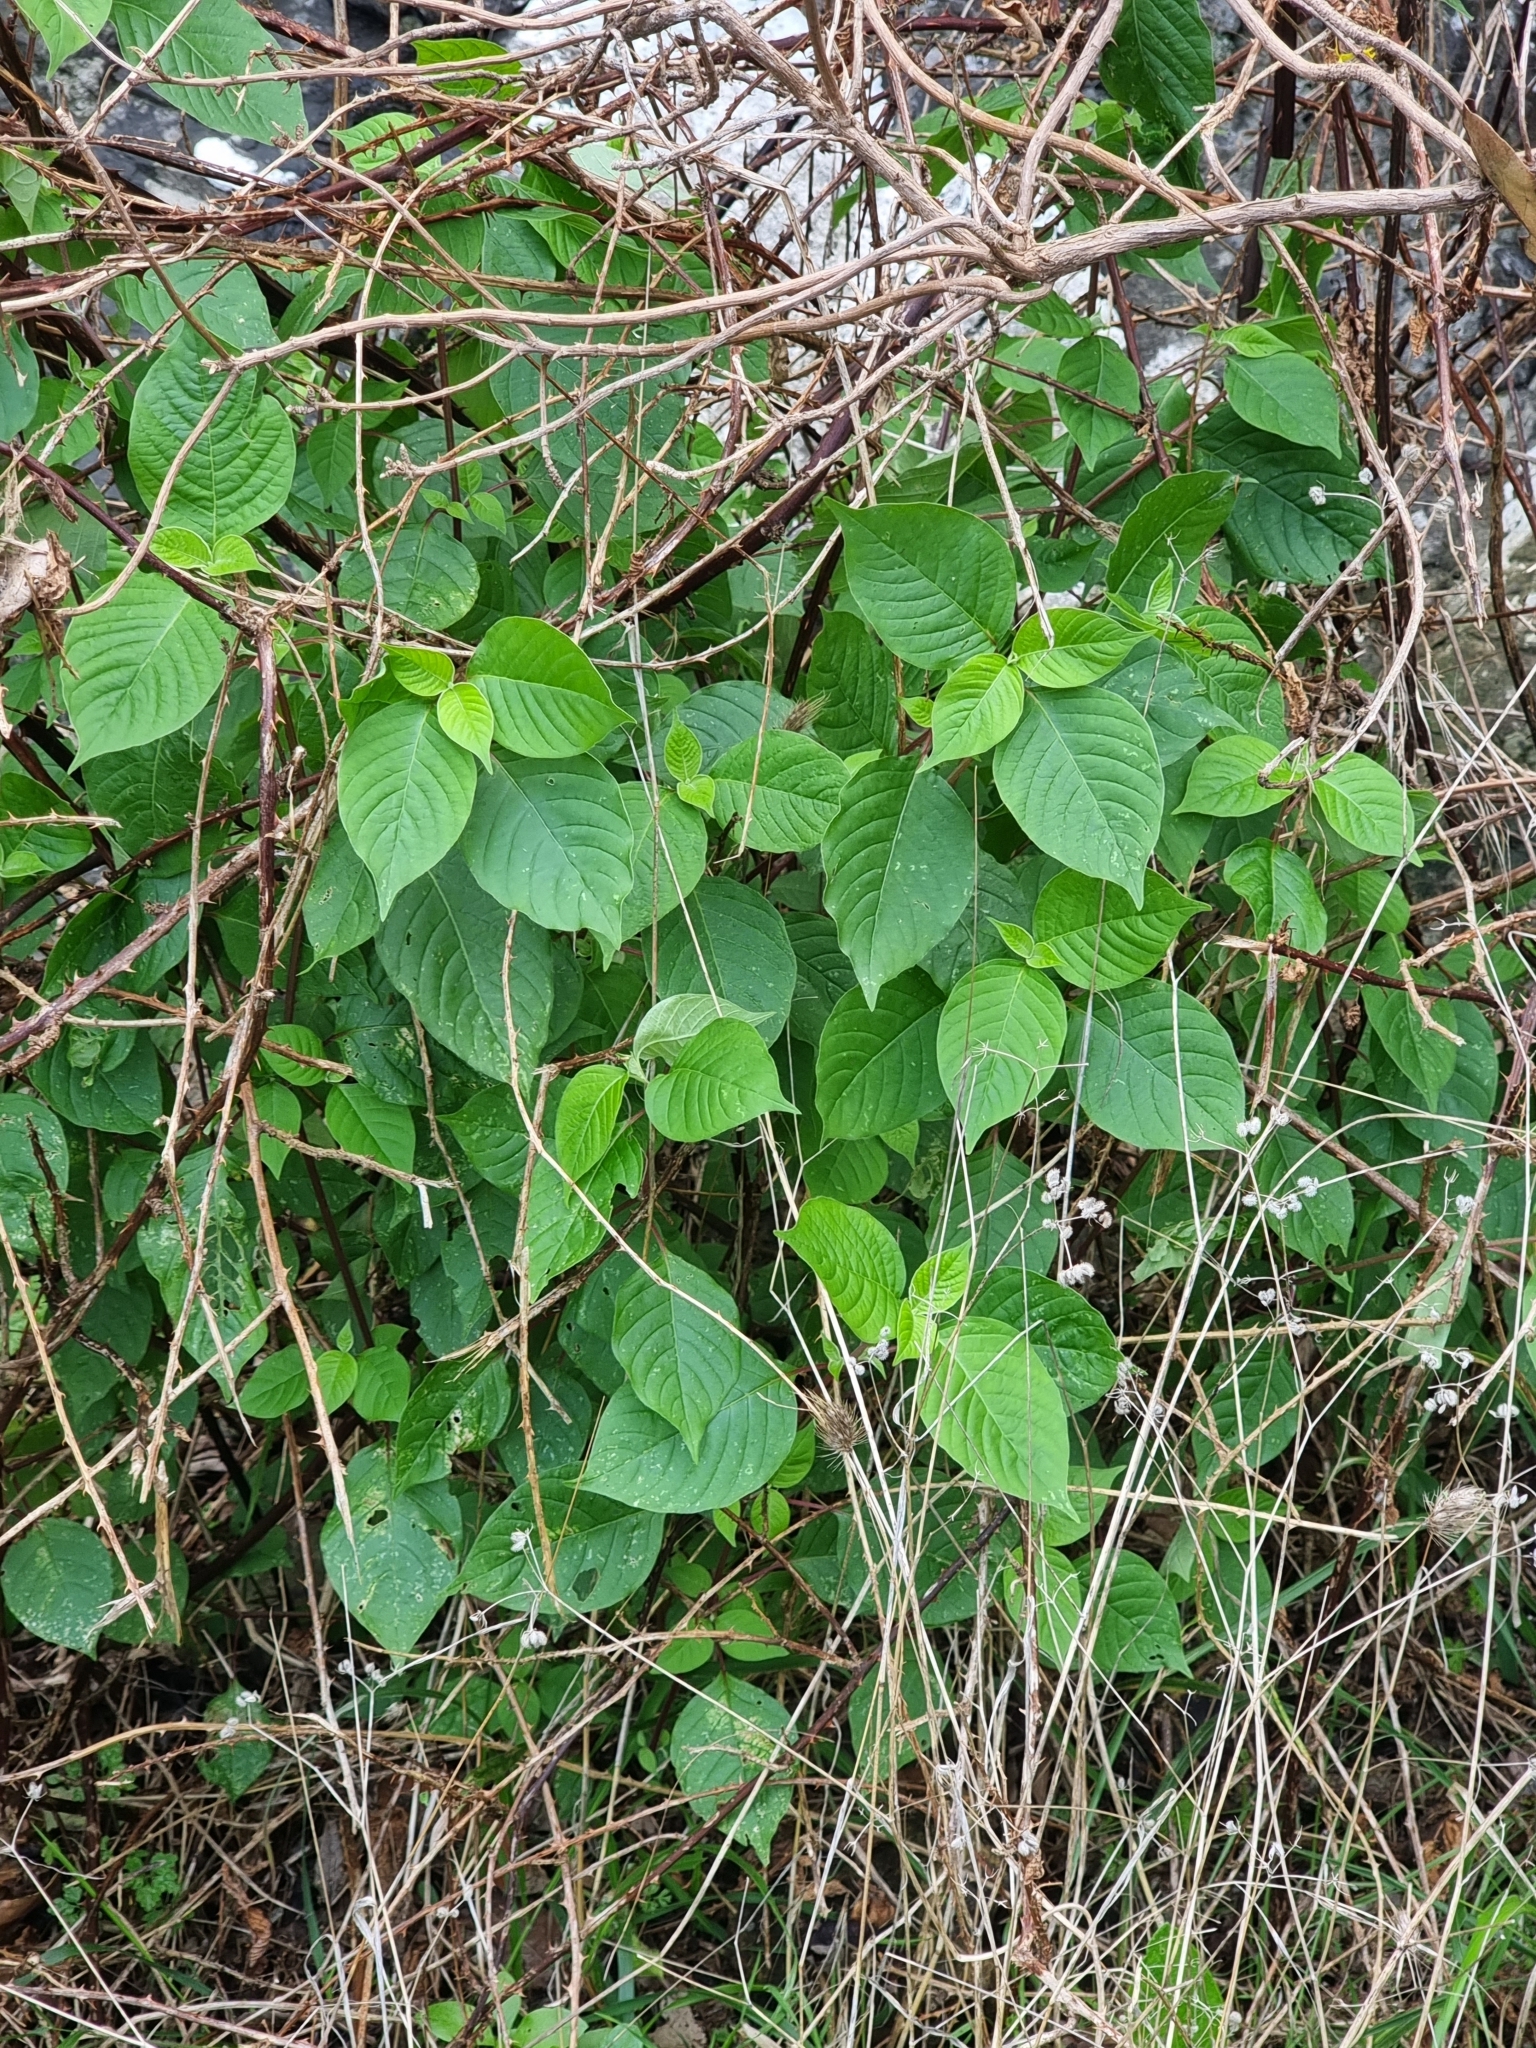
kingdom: Plantae
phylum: Tracheophyta
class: Magnoliopsida
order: Caryophyllales
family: Amaranthaceae
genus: Achyranthes
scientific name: Achyranthes aspera
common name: Devil's horsewhip
